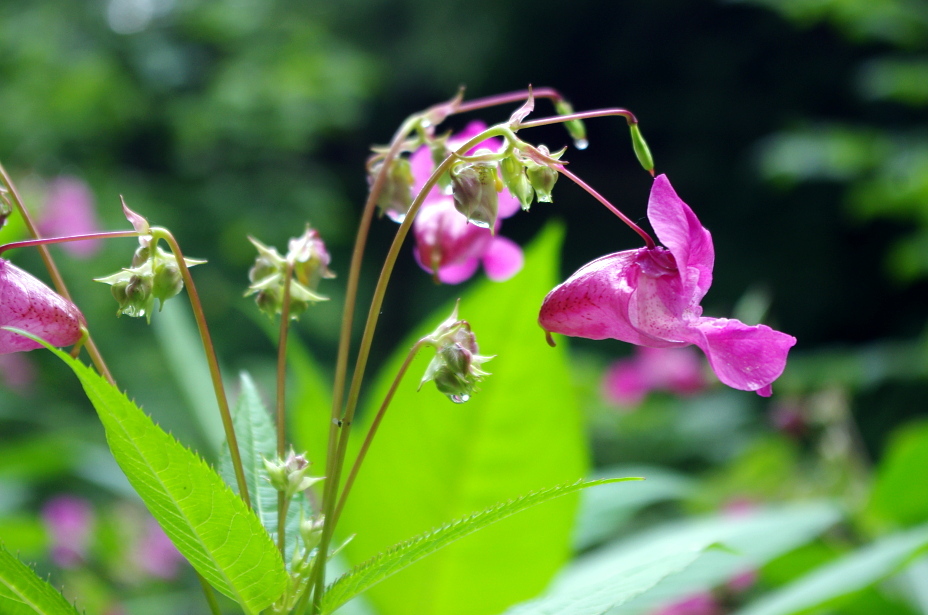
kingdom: Plantae
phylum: Tracheophyta
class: Magnoliopsida
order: Ericales
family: Balsaminaceae
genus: Impatiens
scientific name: Impatiens glandulifera
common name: Himalayan balsam
